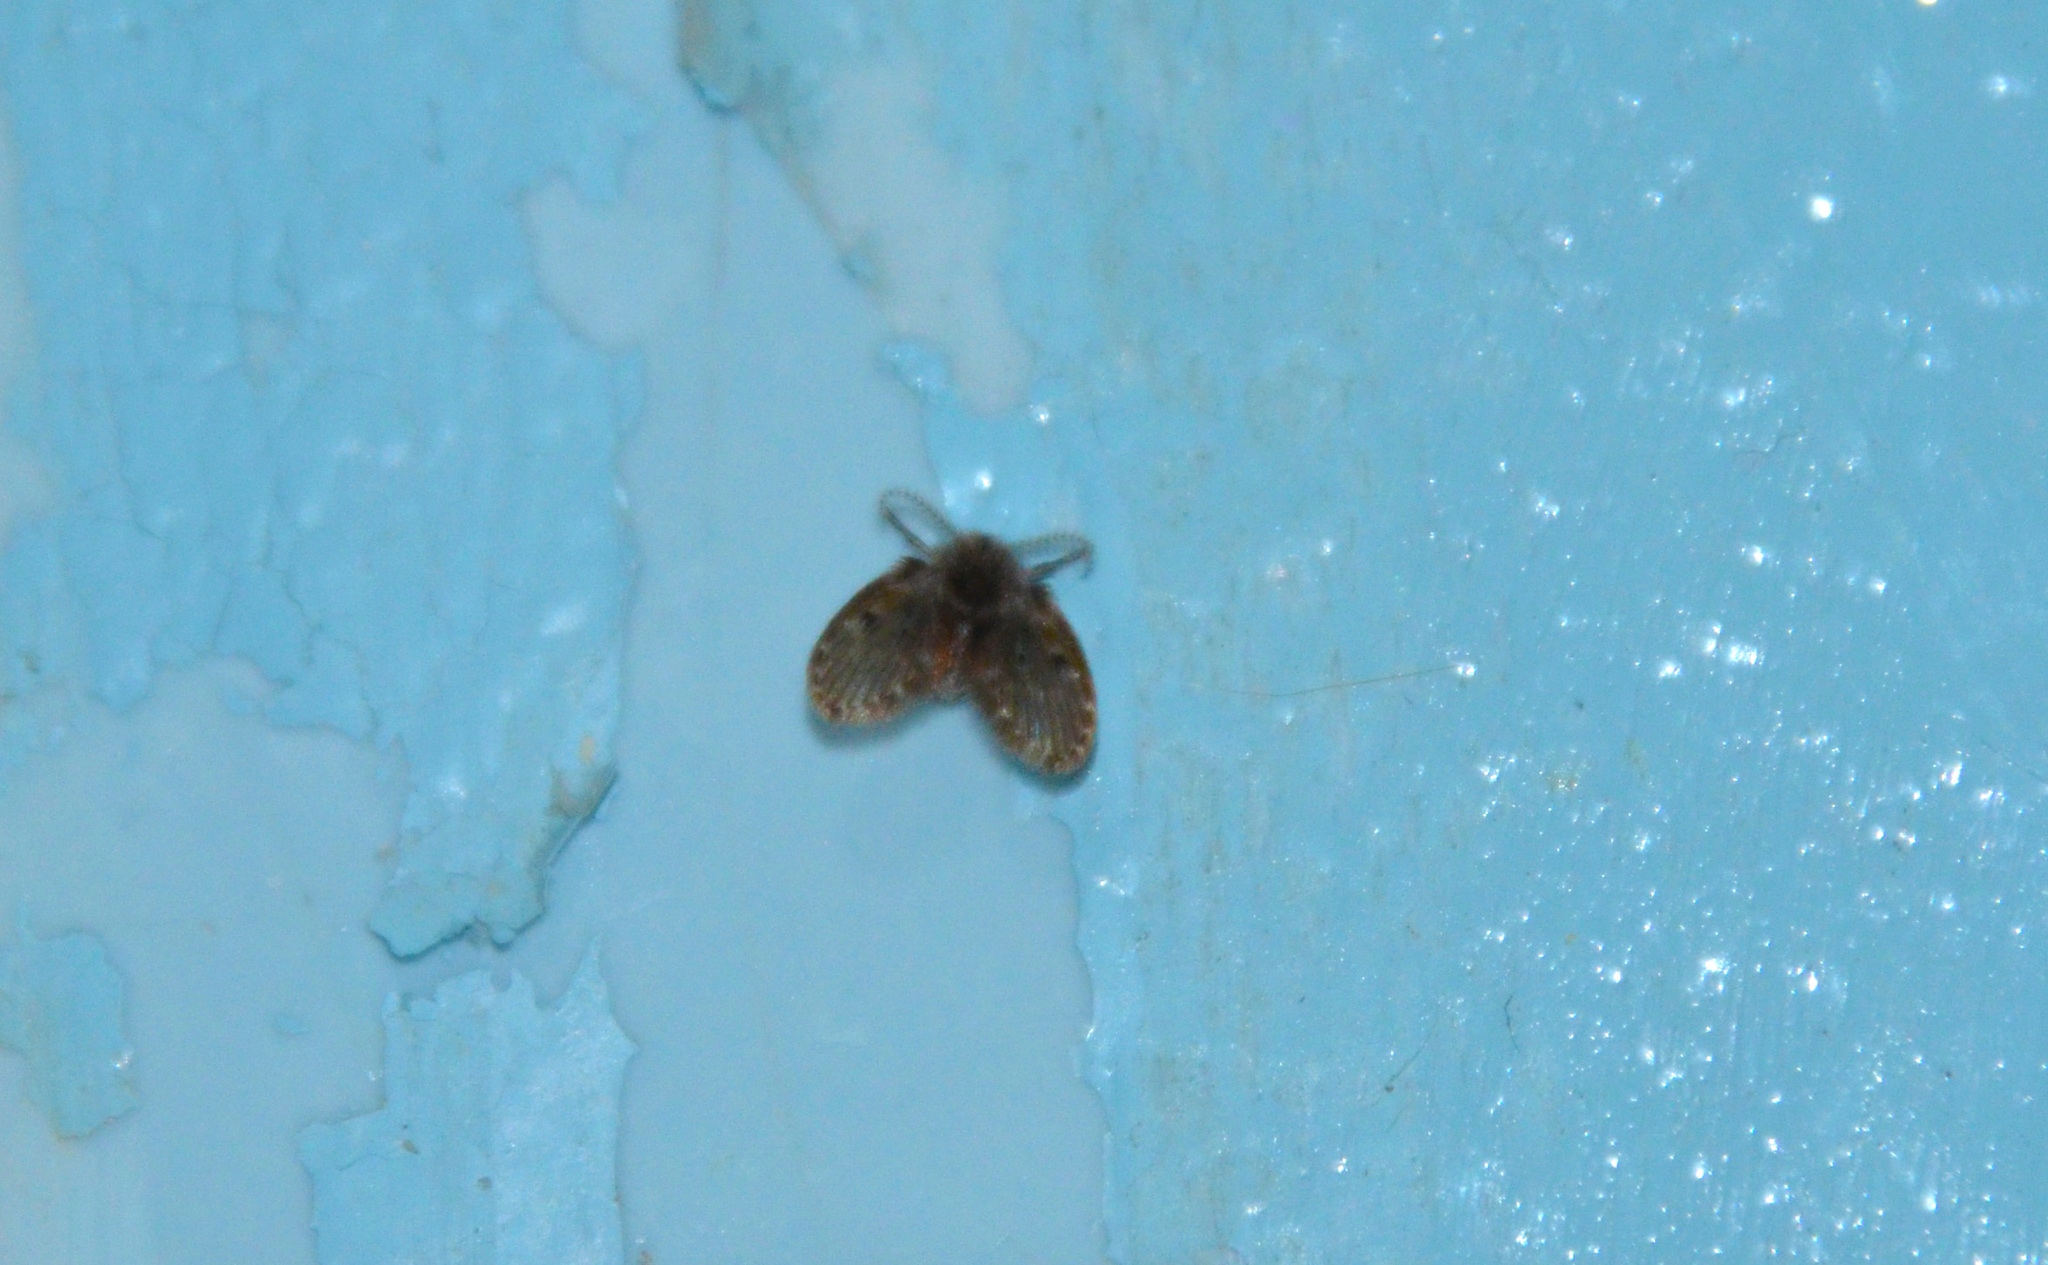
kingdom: Animalia
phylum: Arthropoda
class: Insecta
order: Diptera
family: Psychodidae
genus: Clogmia
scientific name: Clogmia albipunctatus
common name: White-spotted moth fly
